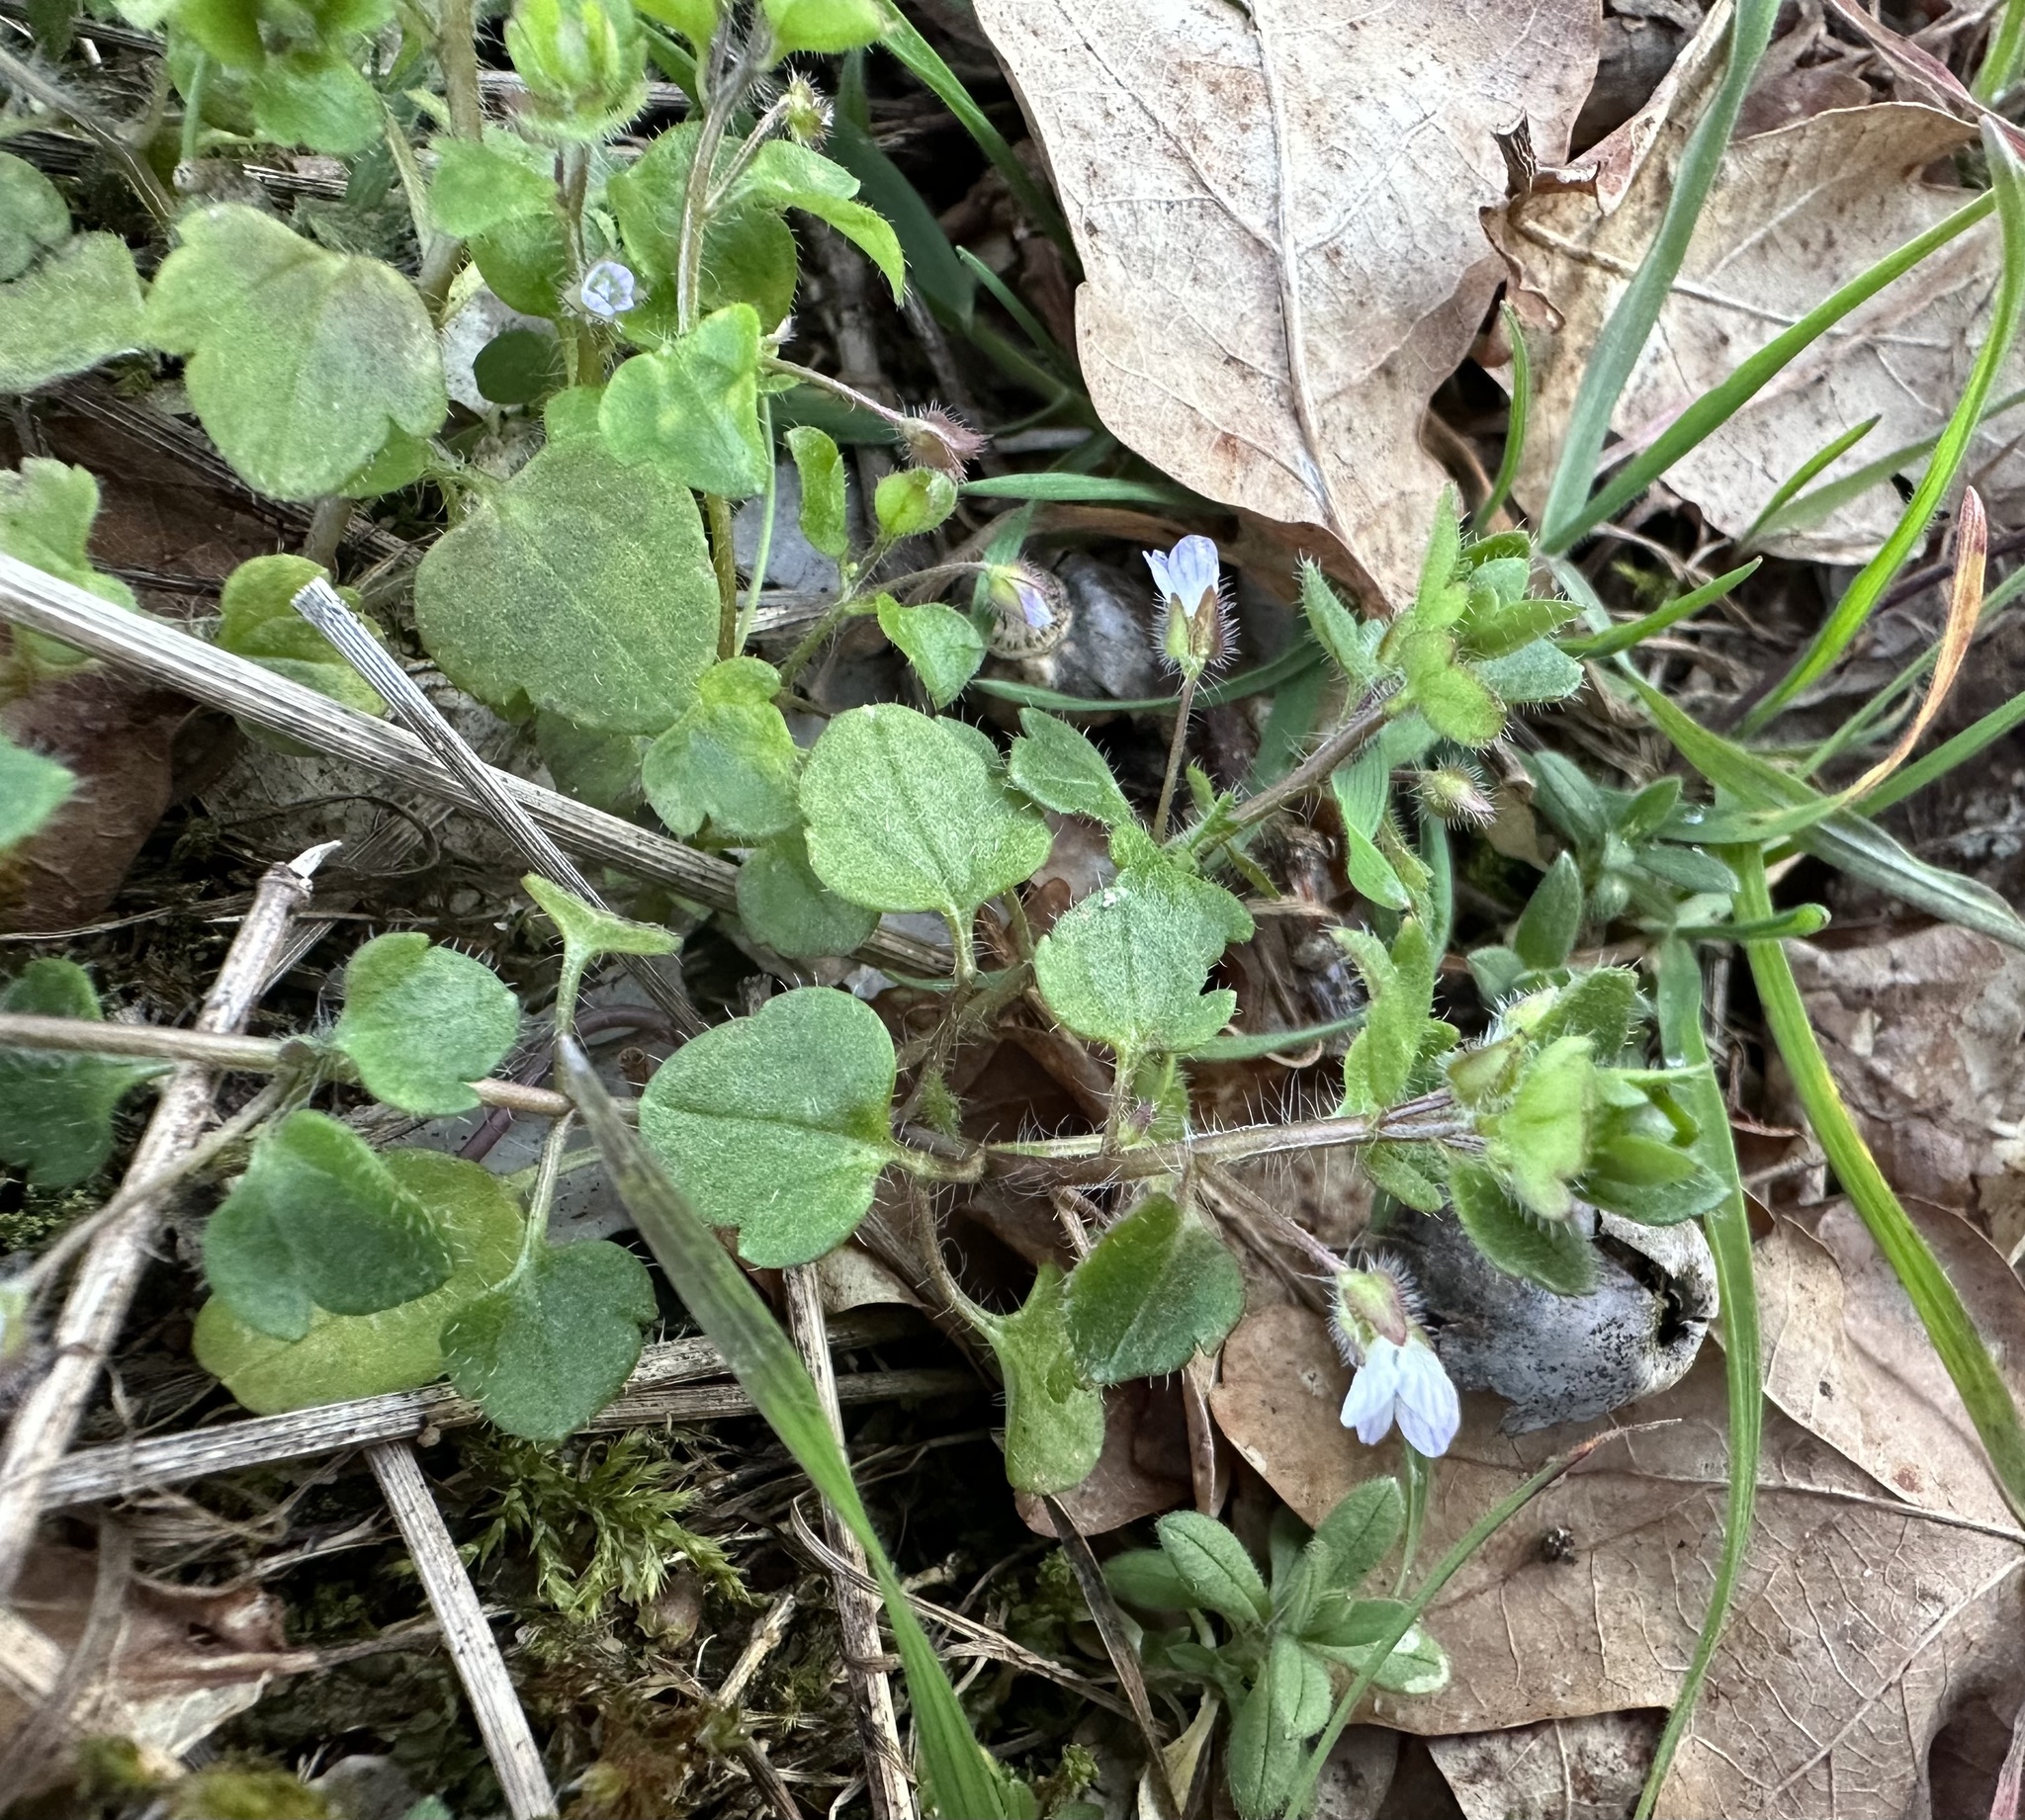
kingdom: Plantae
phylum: Tracheophyta
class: Magnoliopsida
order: Lamiales
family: Plantaginaceae
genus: Veronica
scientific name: Veronica sublobata
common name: False ivy-leaved speedwell
